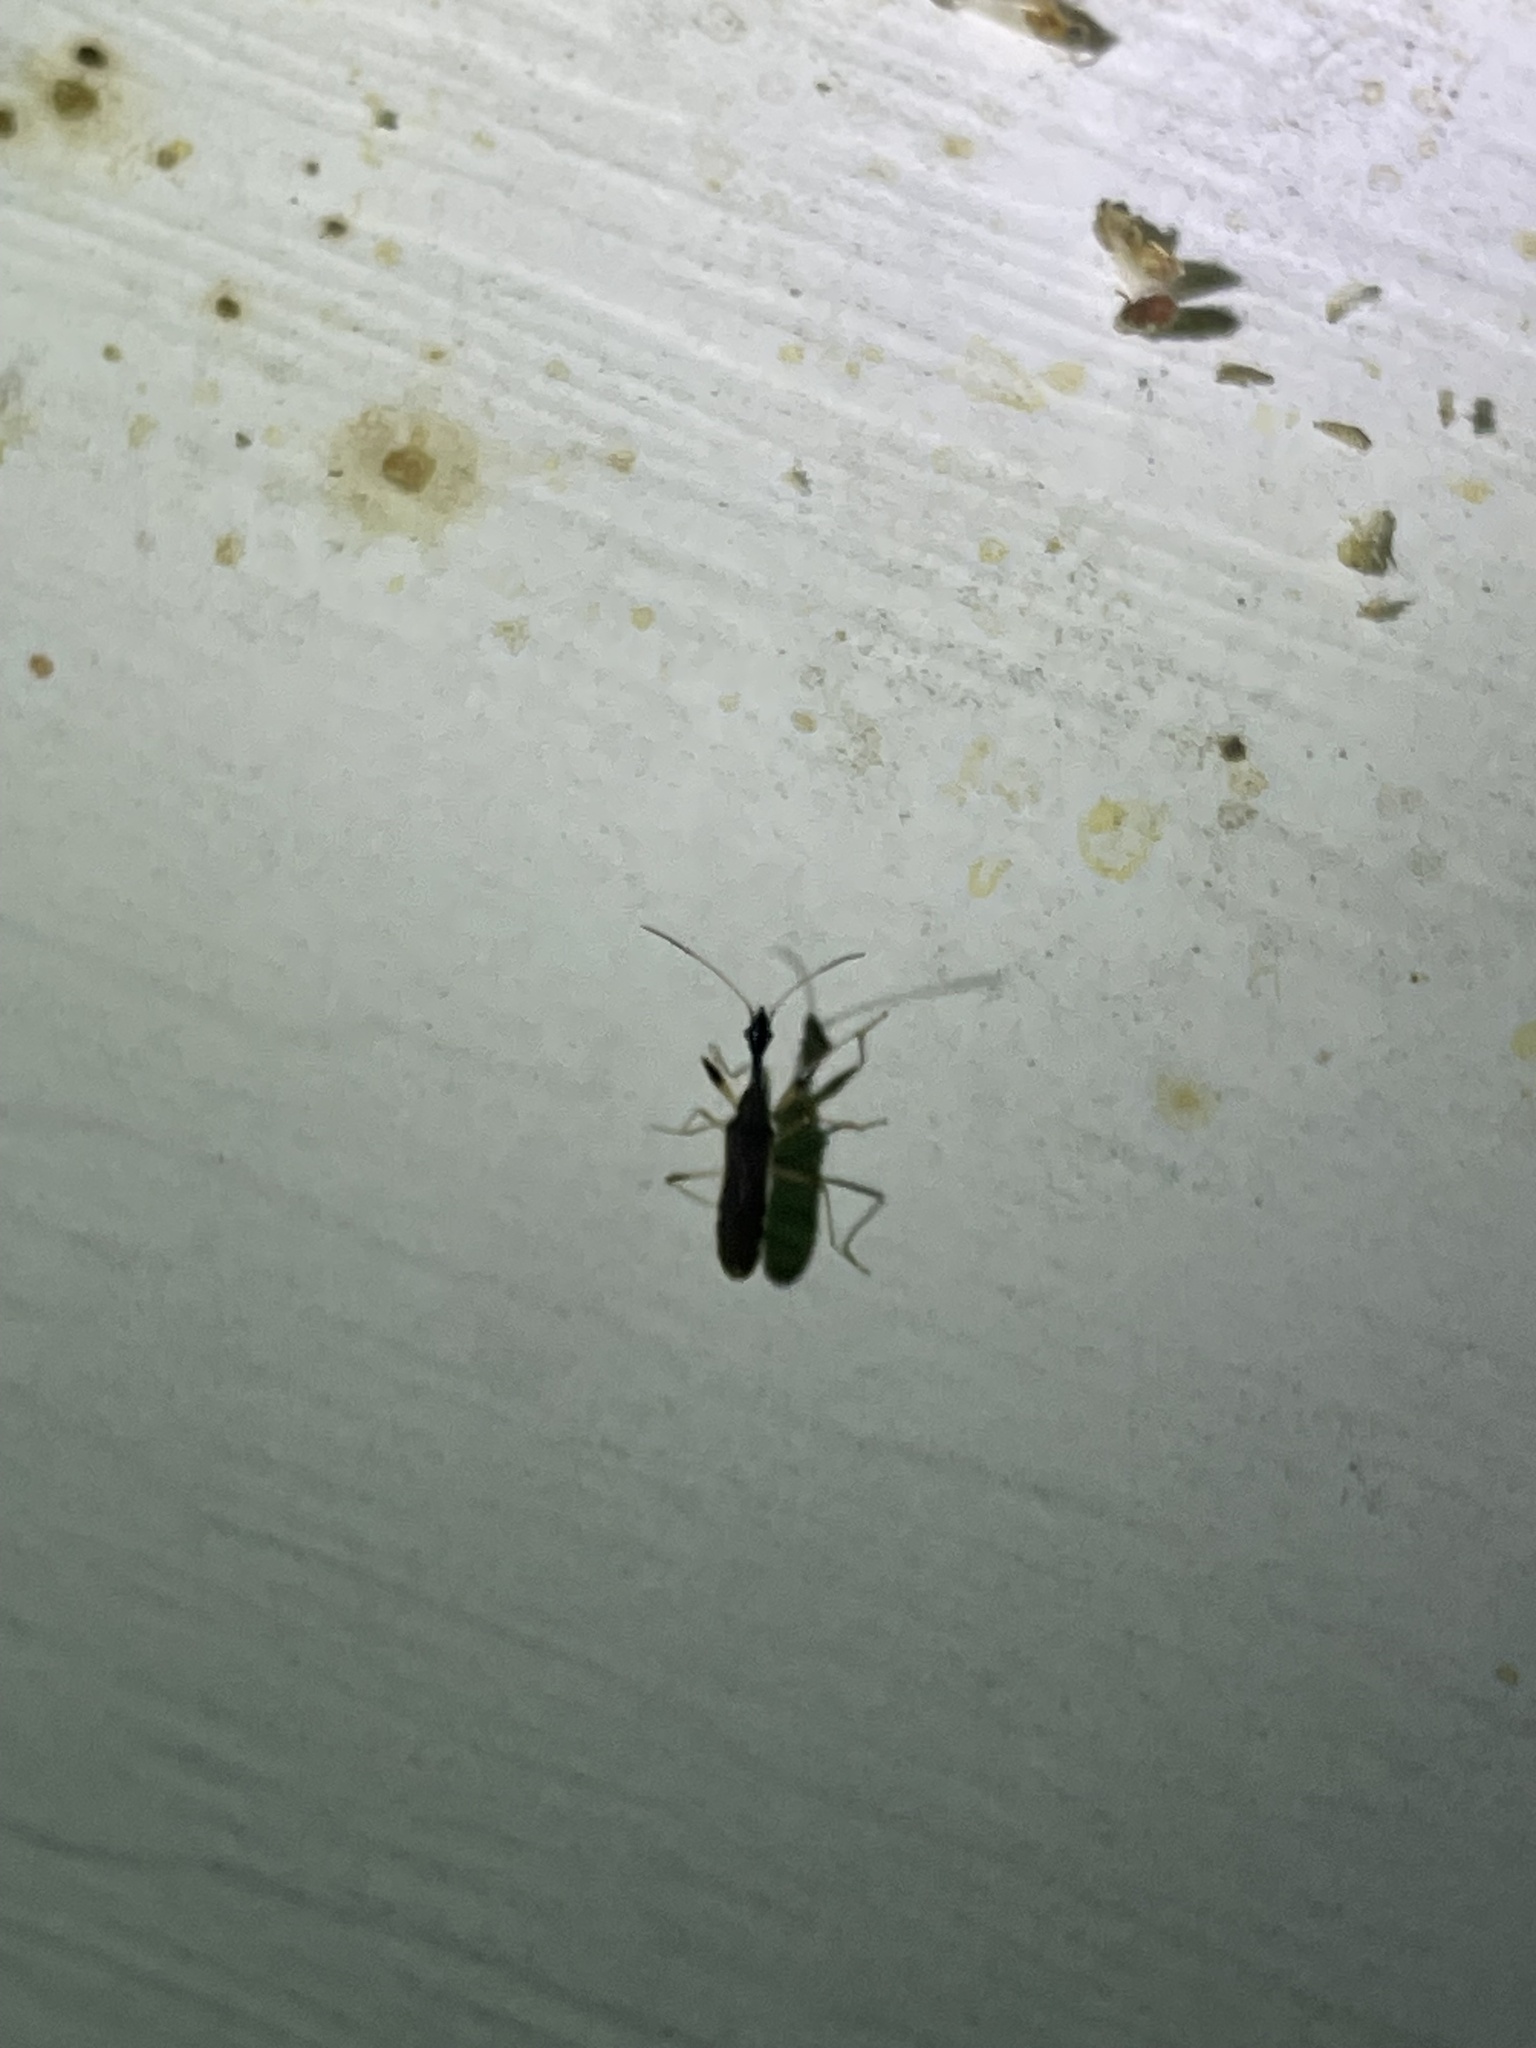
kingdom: Animalia
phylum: Arthropoda
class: Insecta
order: Hemiptera
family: Rhyparochromidae
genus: Myodocha
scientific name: Myodocha serripes
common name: Long-necked seed bug
